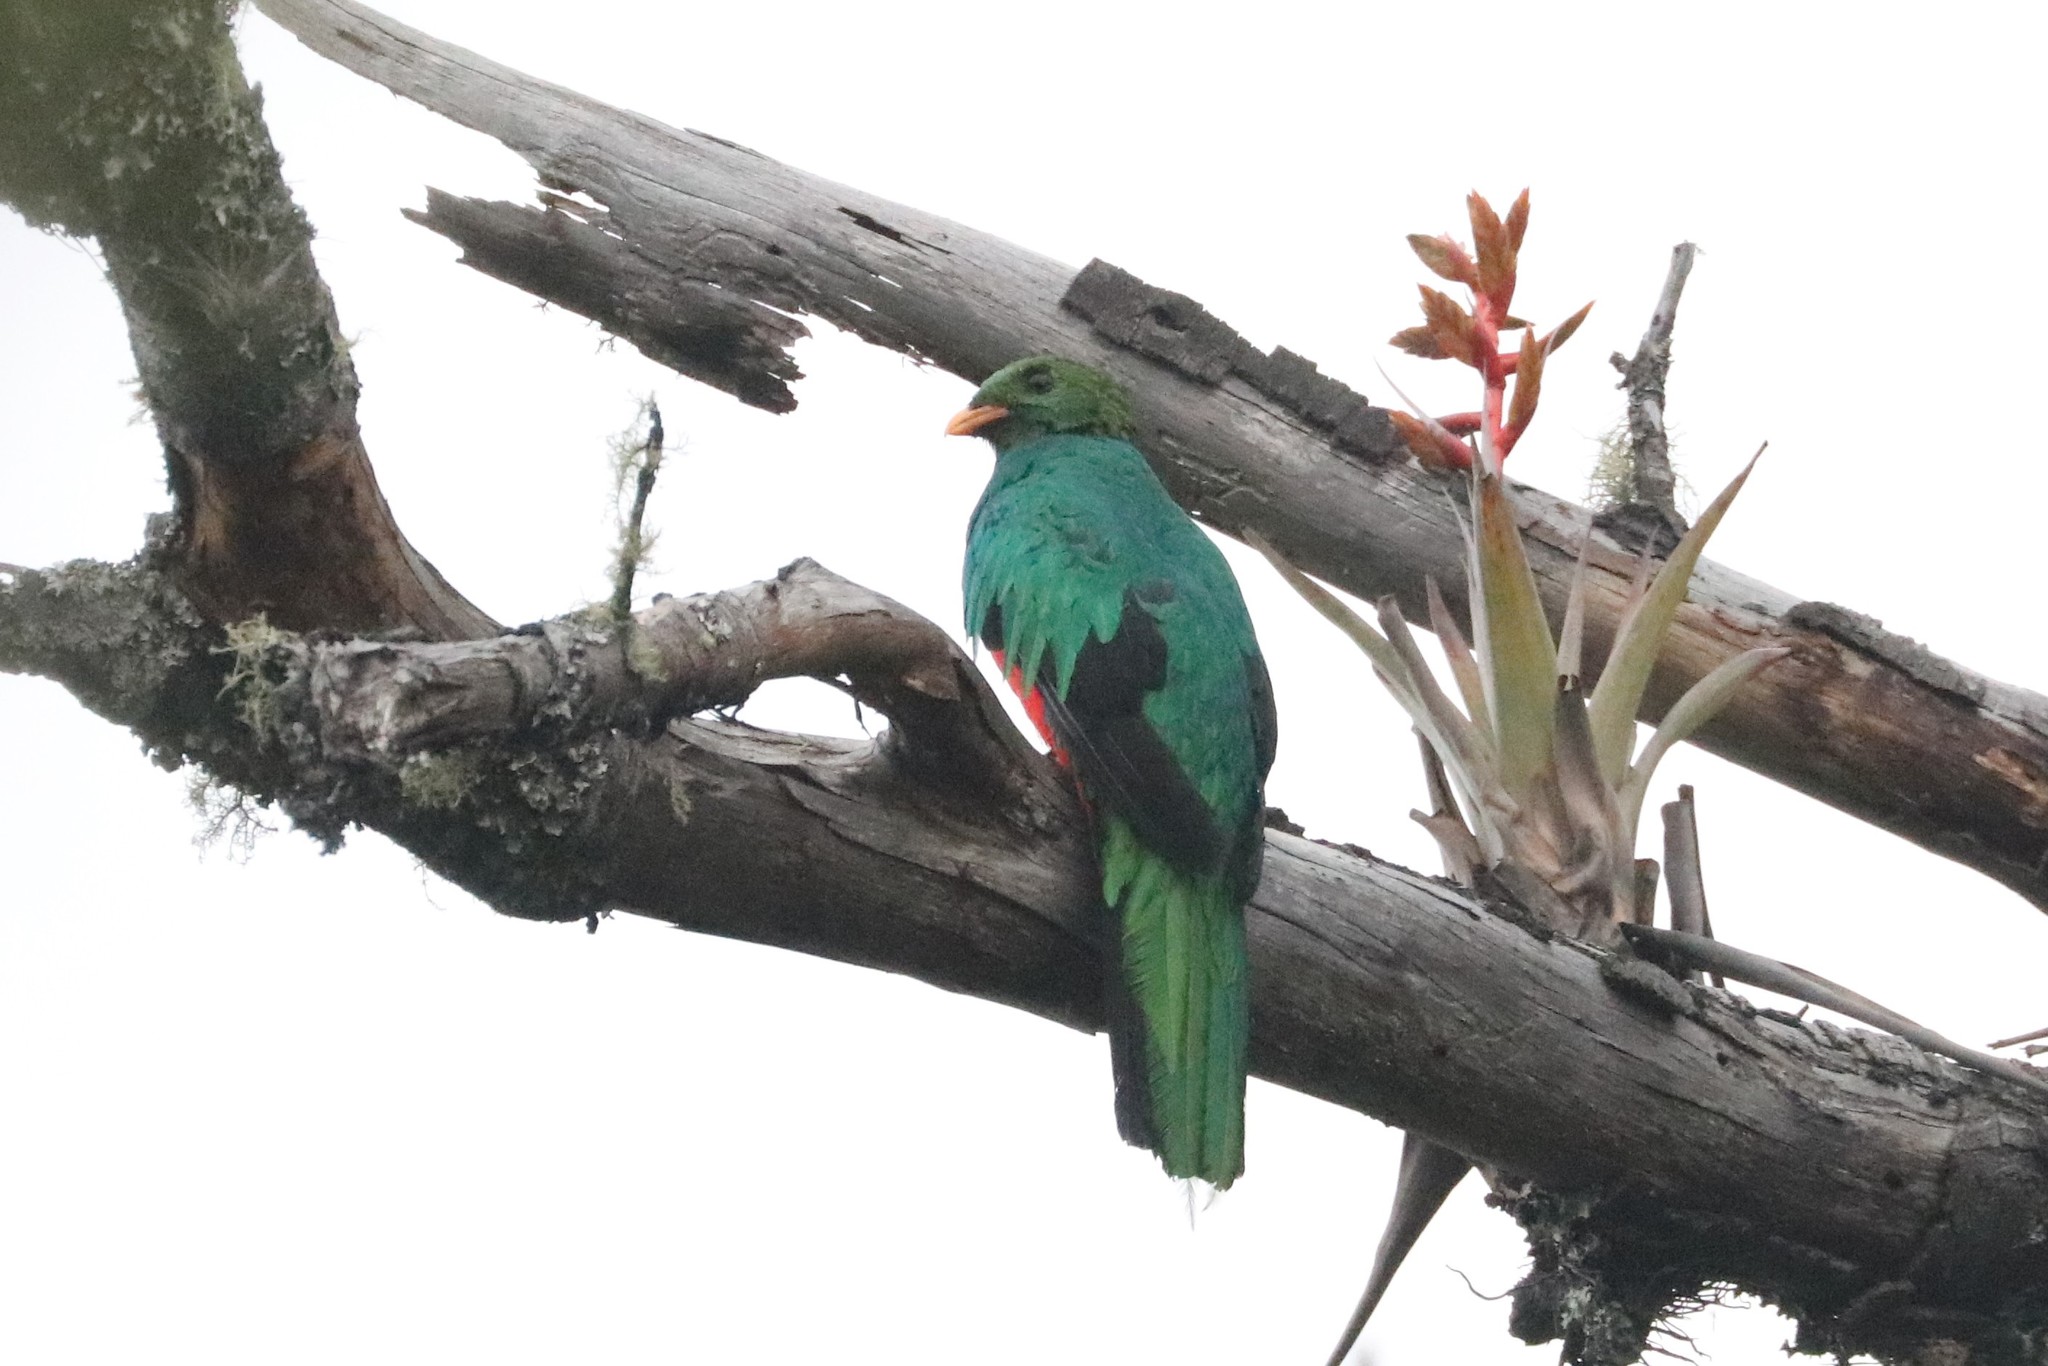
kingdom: Animalia
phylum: Chordata
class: Aves
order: Trogoniformes
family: Trogonidae
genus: Pharomachrus
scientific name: Pharomachrus auriceps
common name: Golden-headed quetzal
